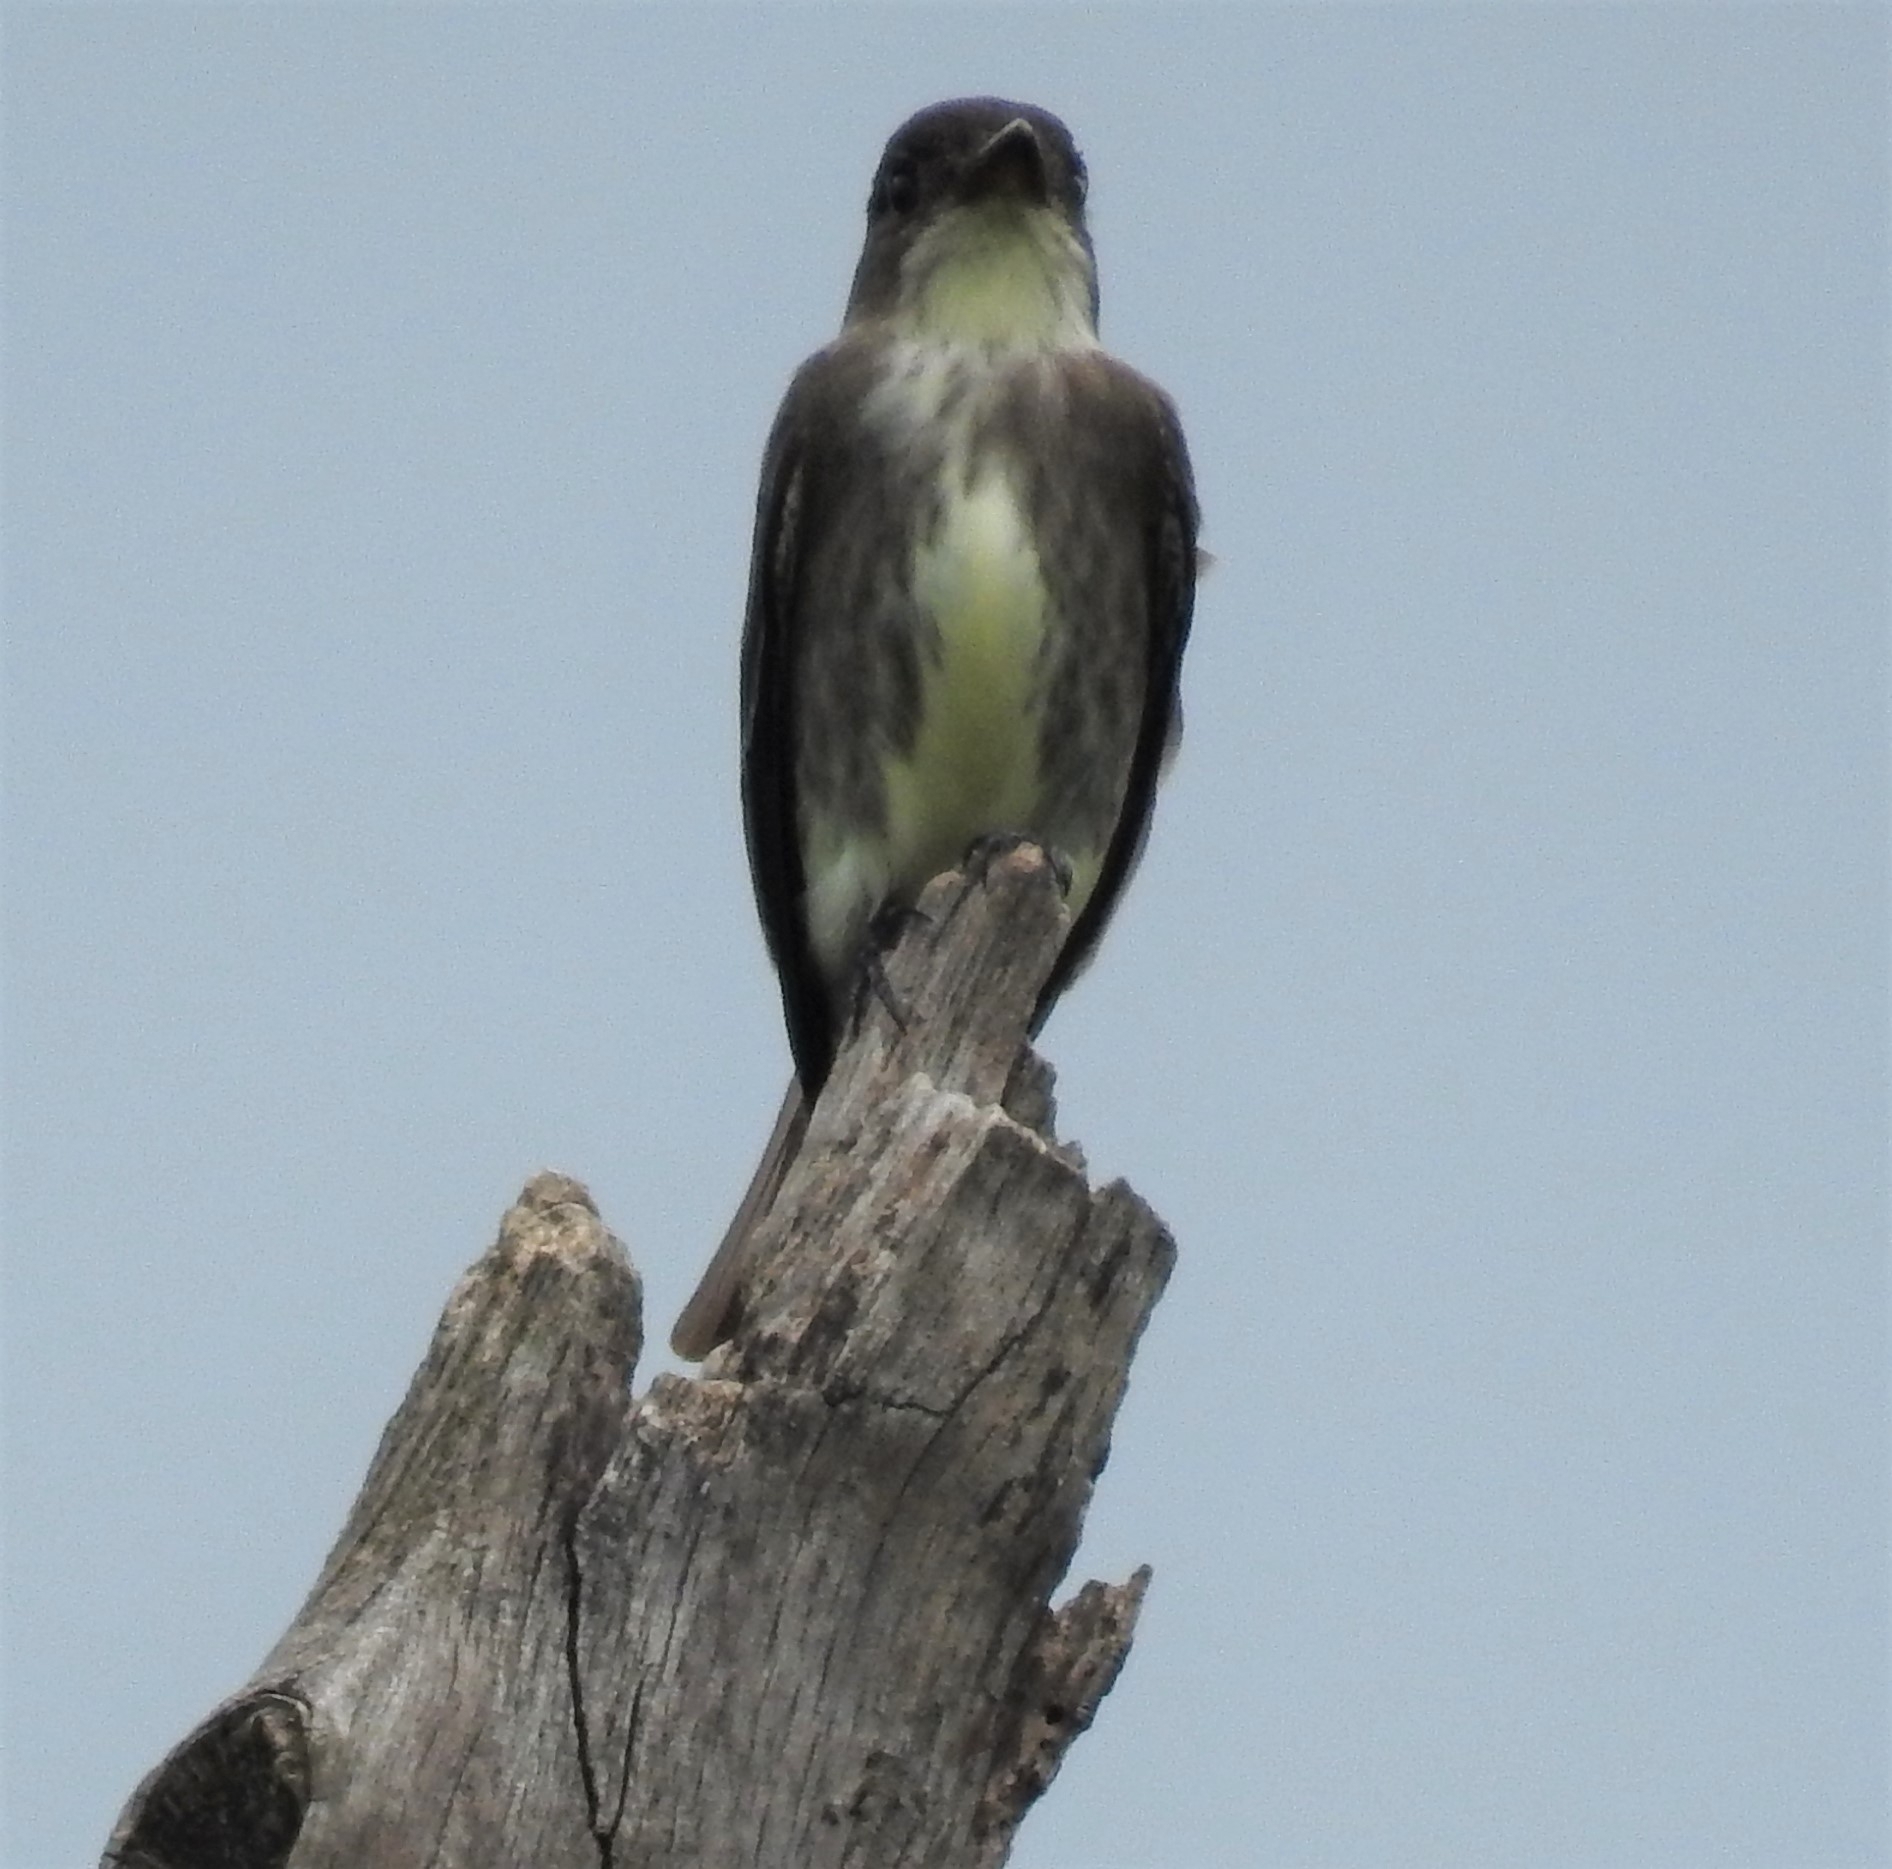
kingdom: Animalia
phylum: Chordata
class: Aves
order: Passeriformes
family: Tyrannidae
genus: Contopus
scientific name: Contopus cooperi
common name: Olive-sided flycatcher
